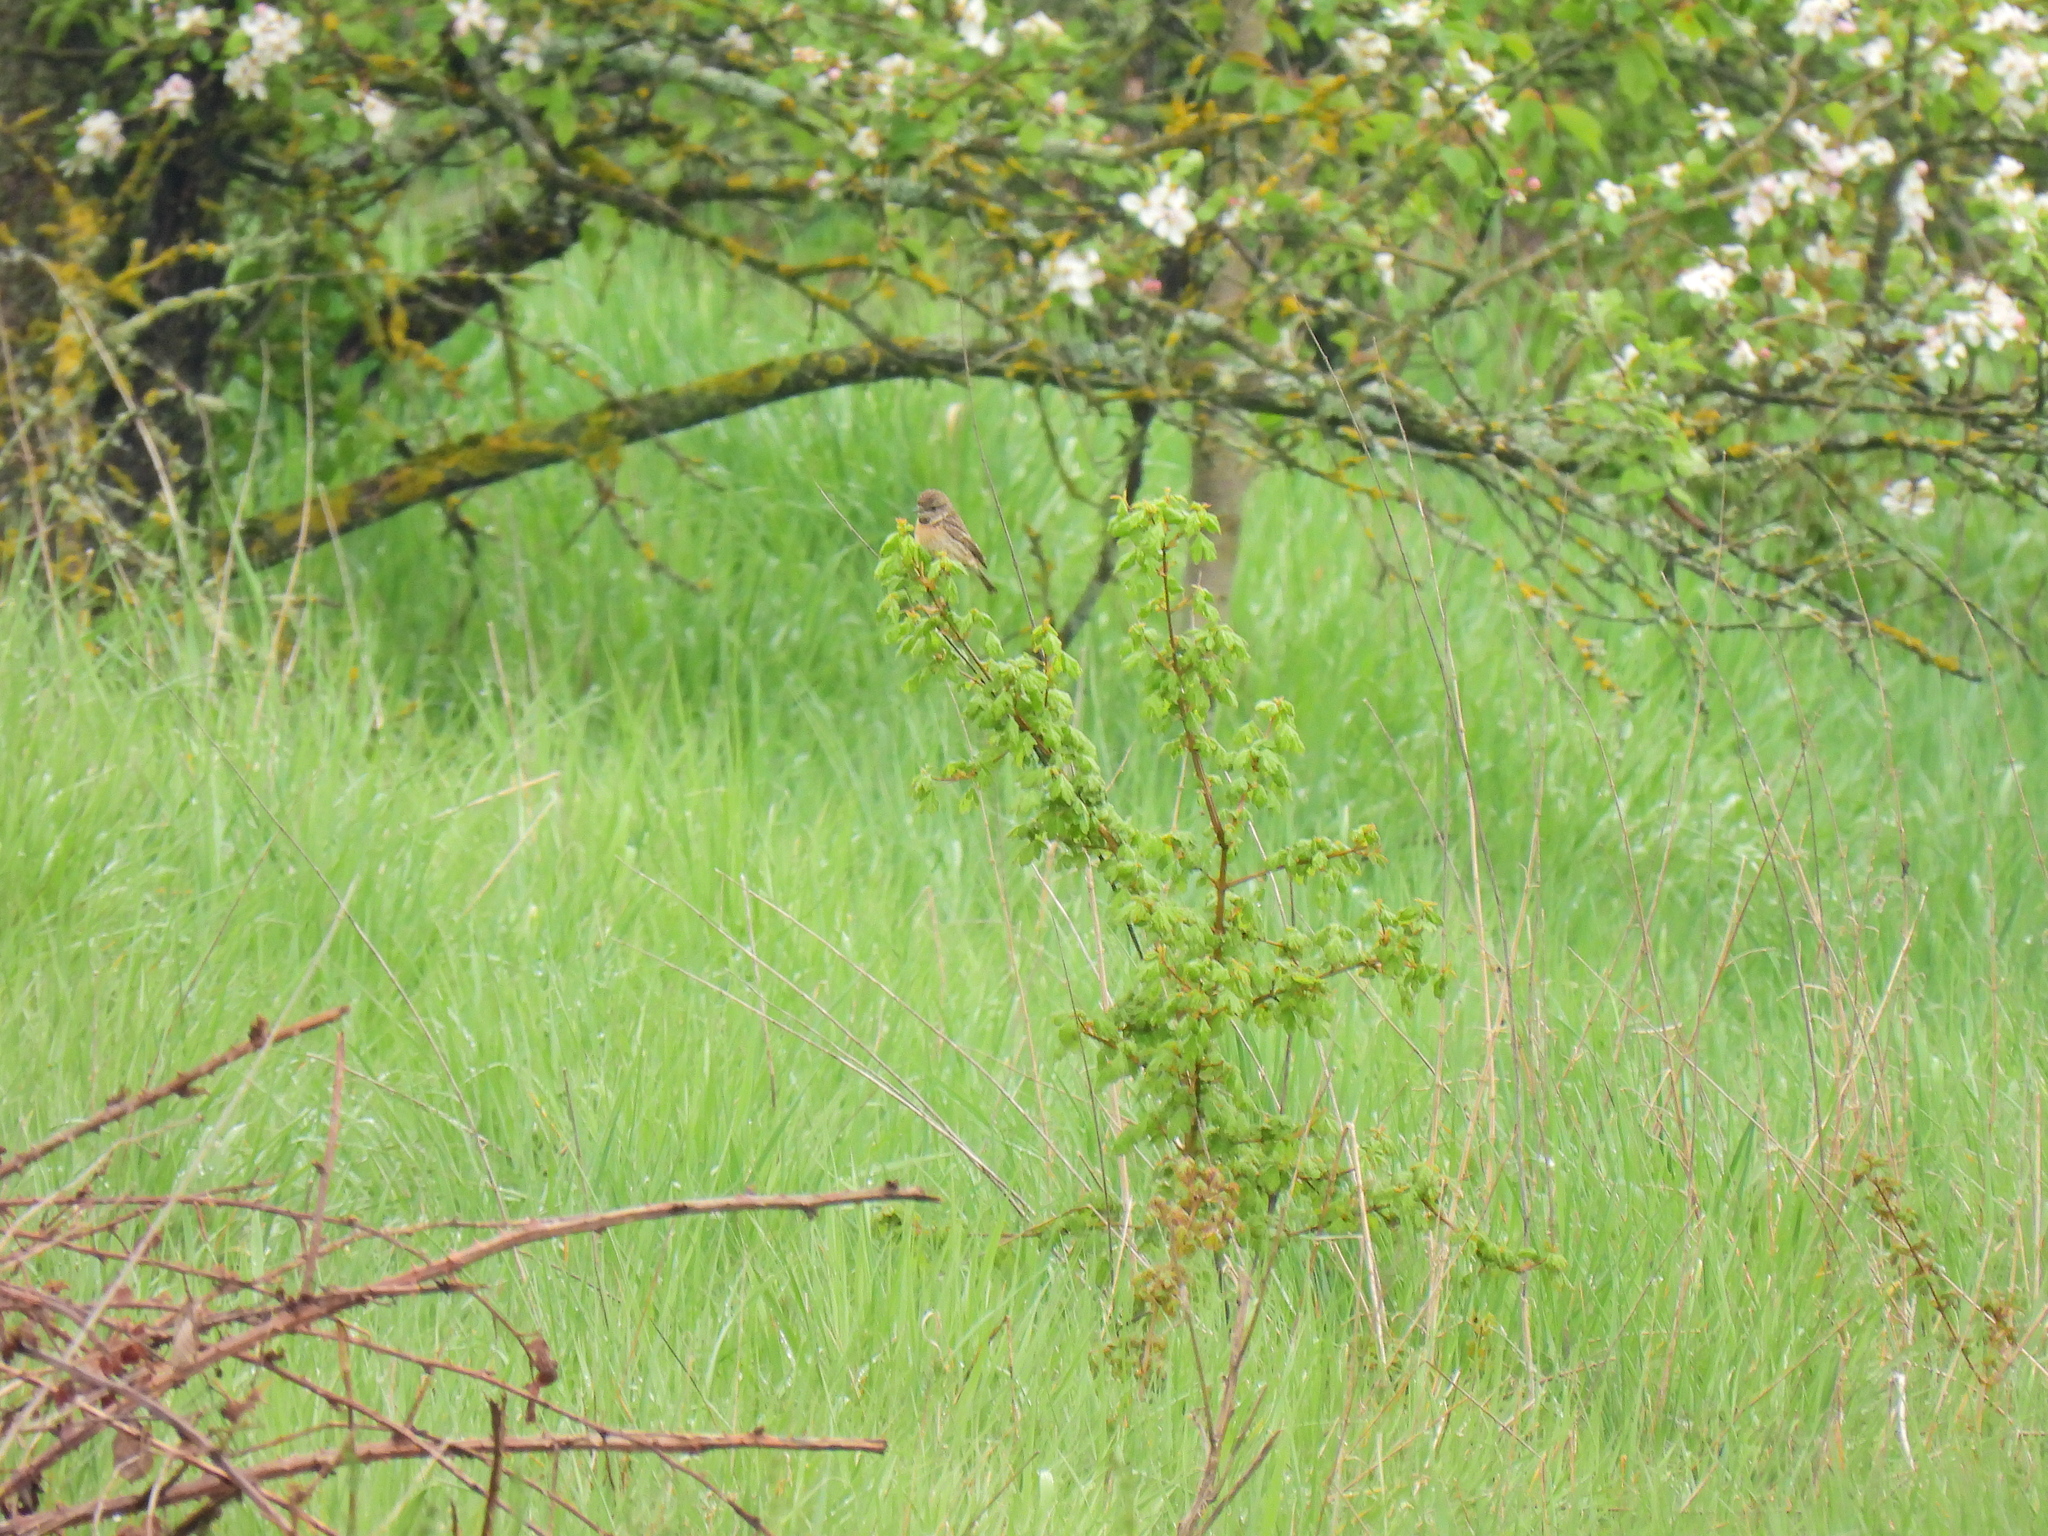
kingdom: Animalia
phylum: Chordata
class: Aves
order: Passeriformes
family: Muscicapidae
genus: Saxicola
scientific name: Saxicola rubicola
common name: European stonechat
